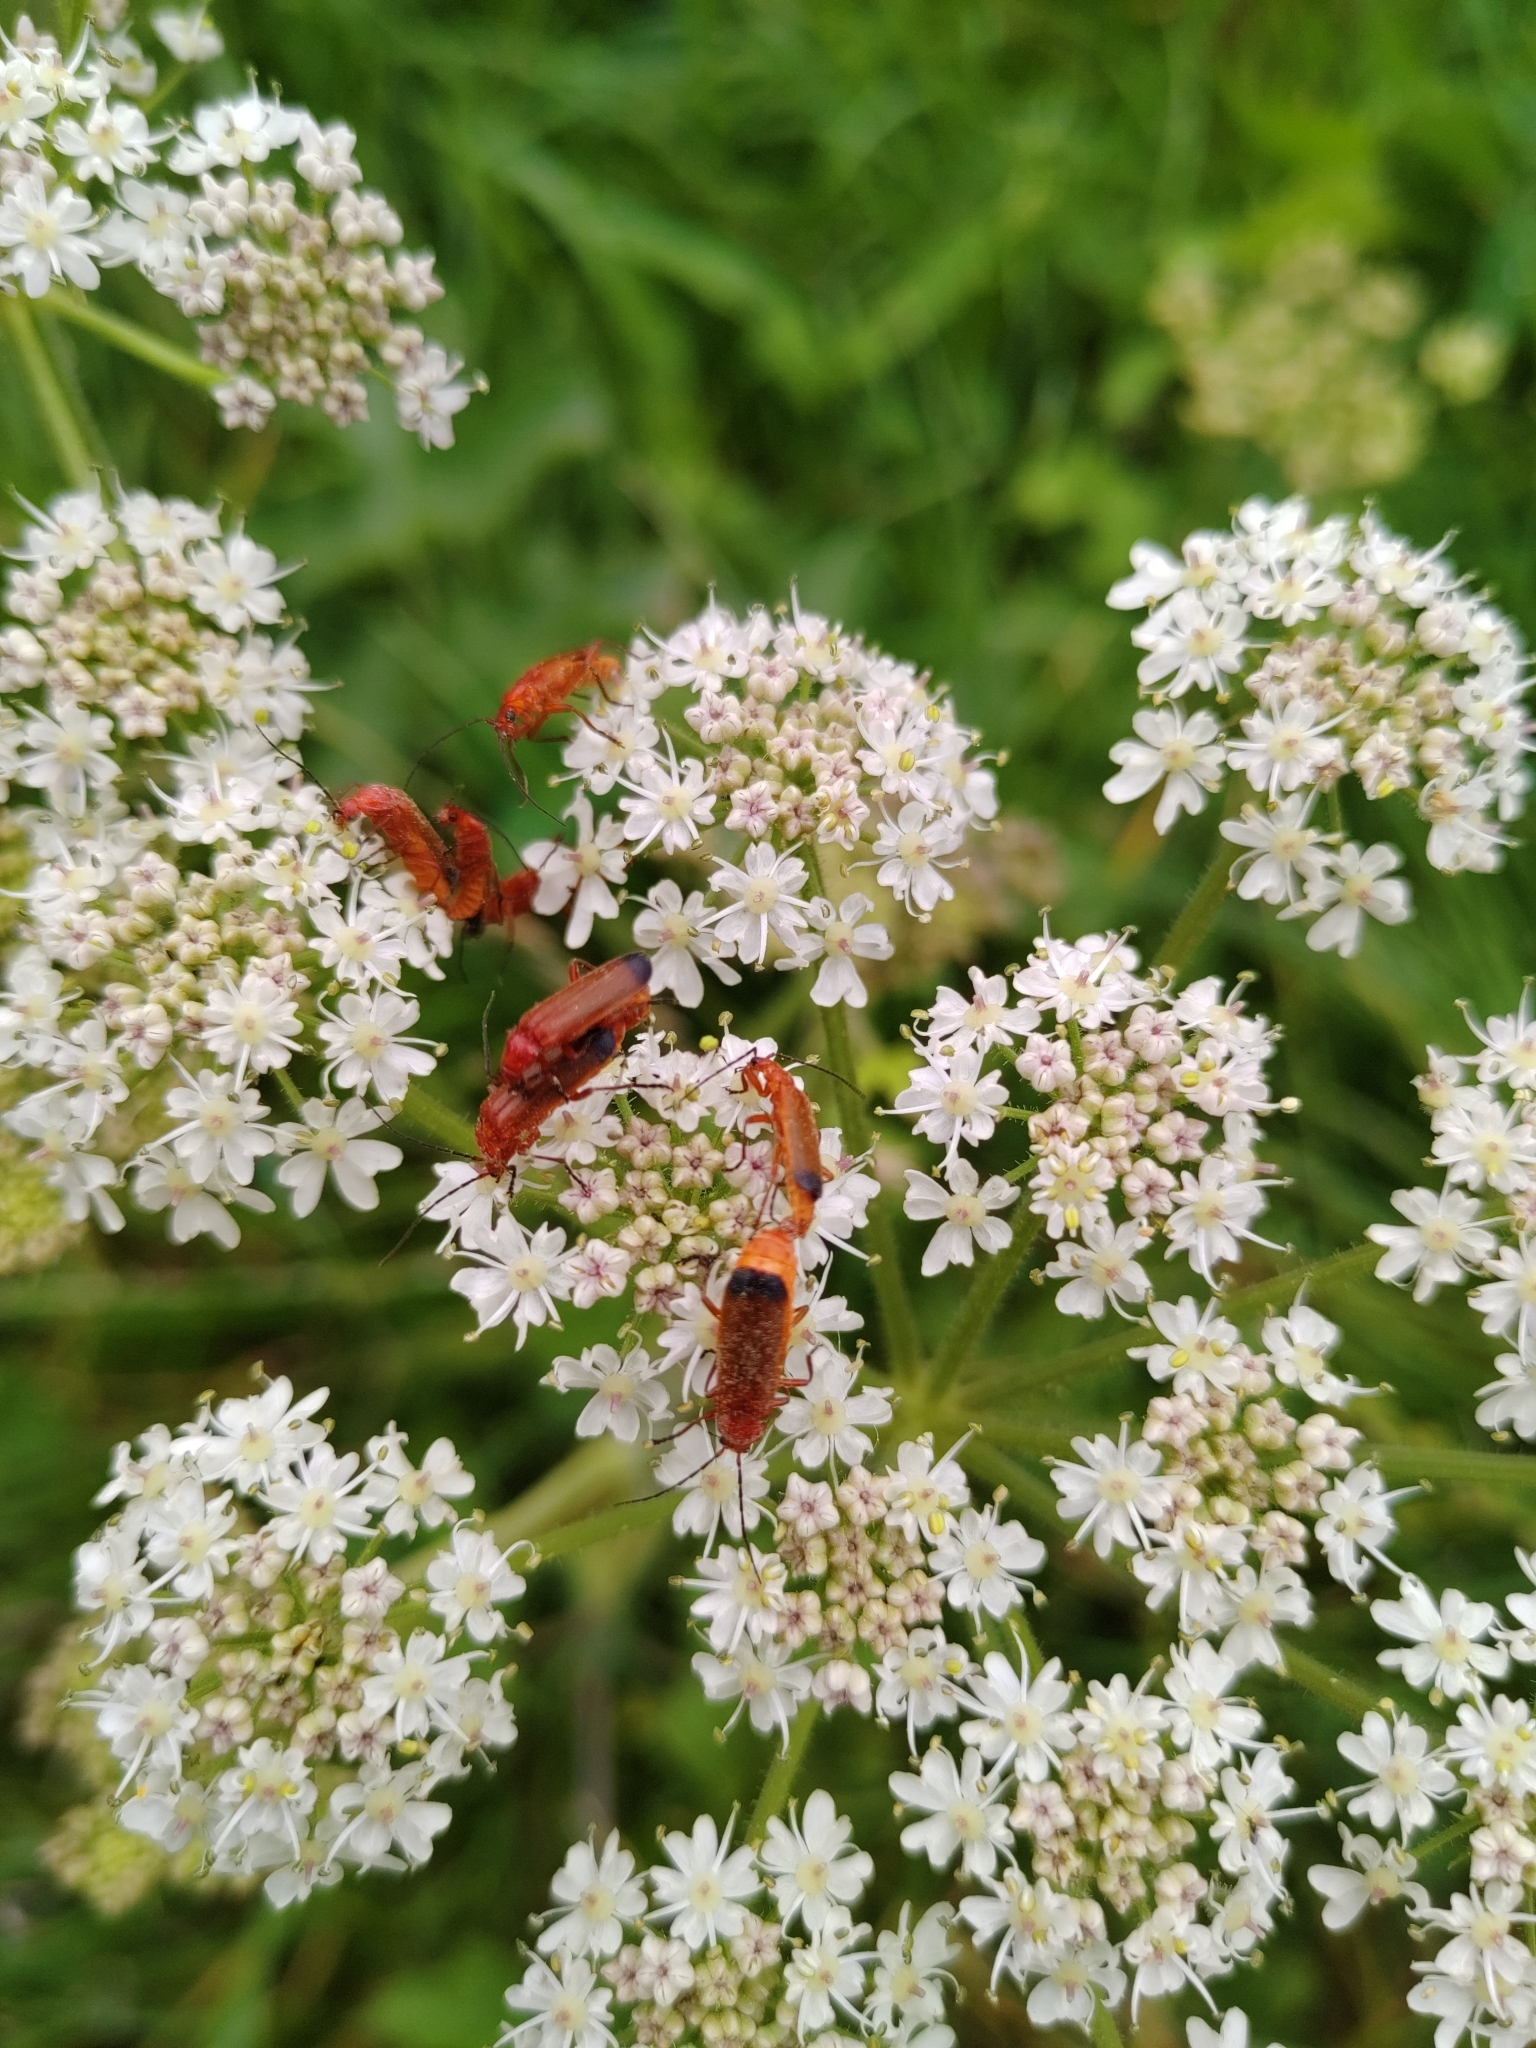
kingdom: Animalia
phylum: Arthropoda
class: Insecta
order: Coleoptera
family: Cantharidae
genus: Rhagonycha
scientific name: Rhagonycha fulva
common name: Common red soldier beetle
